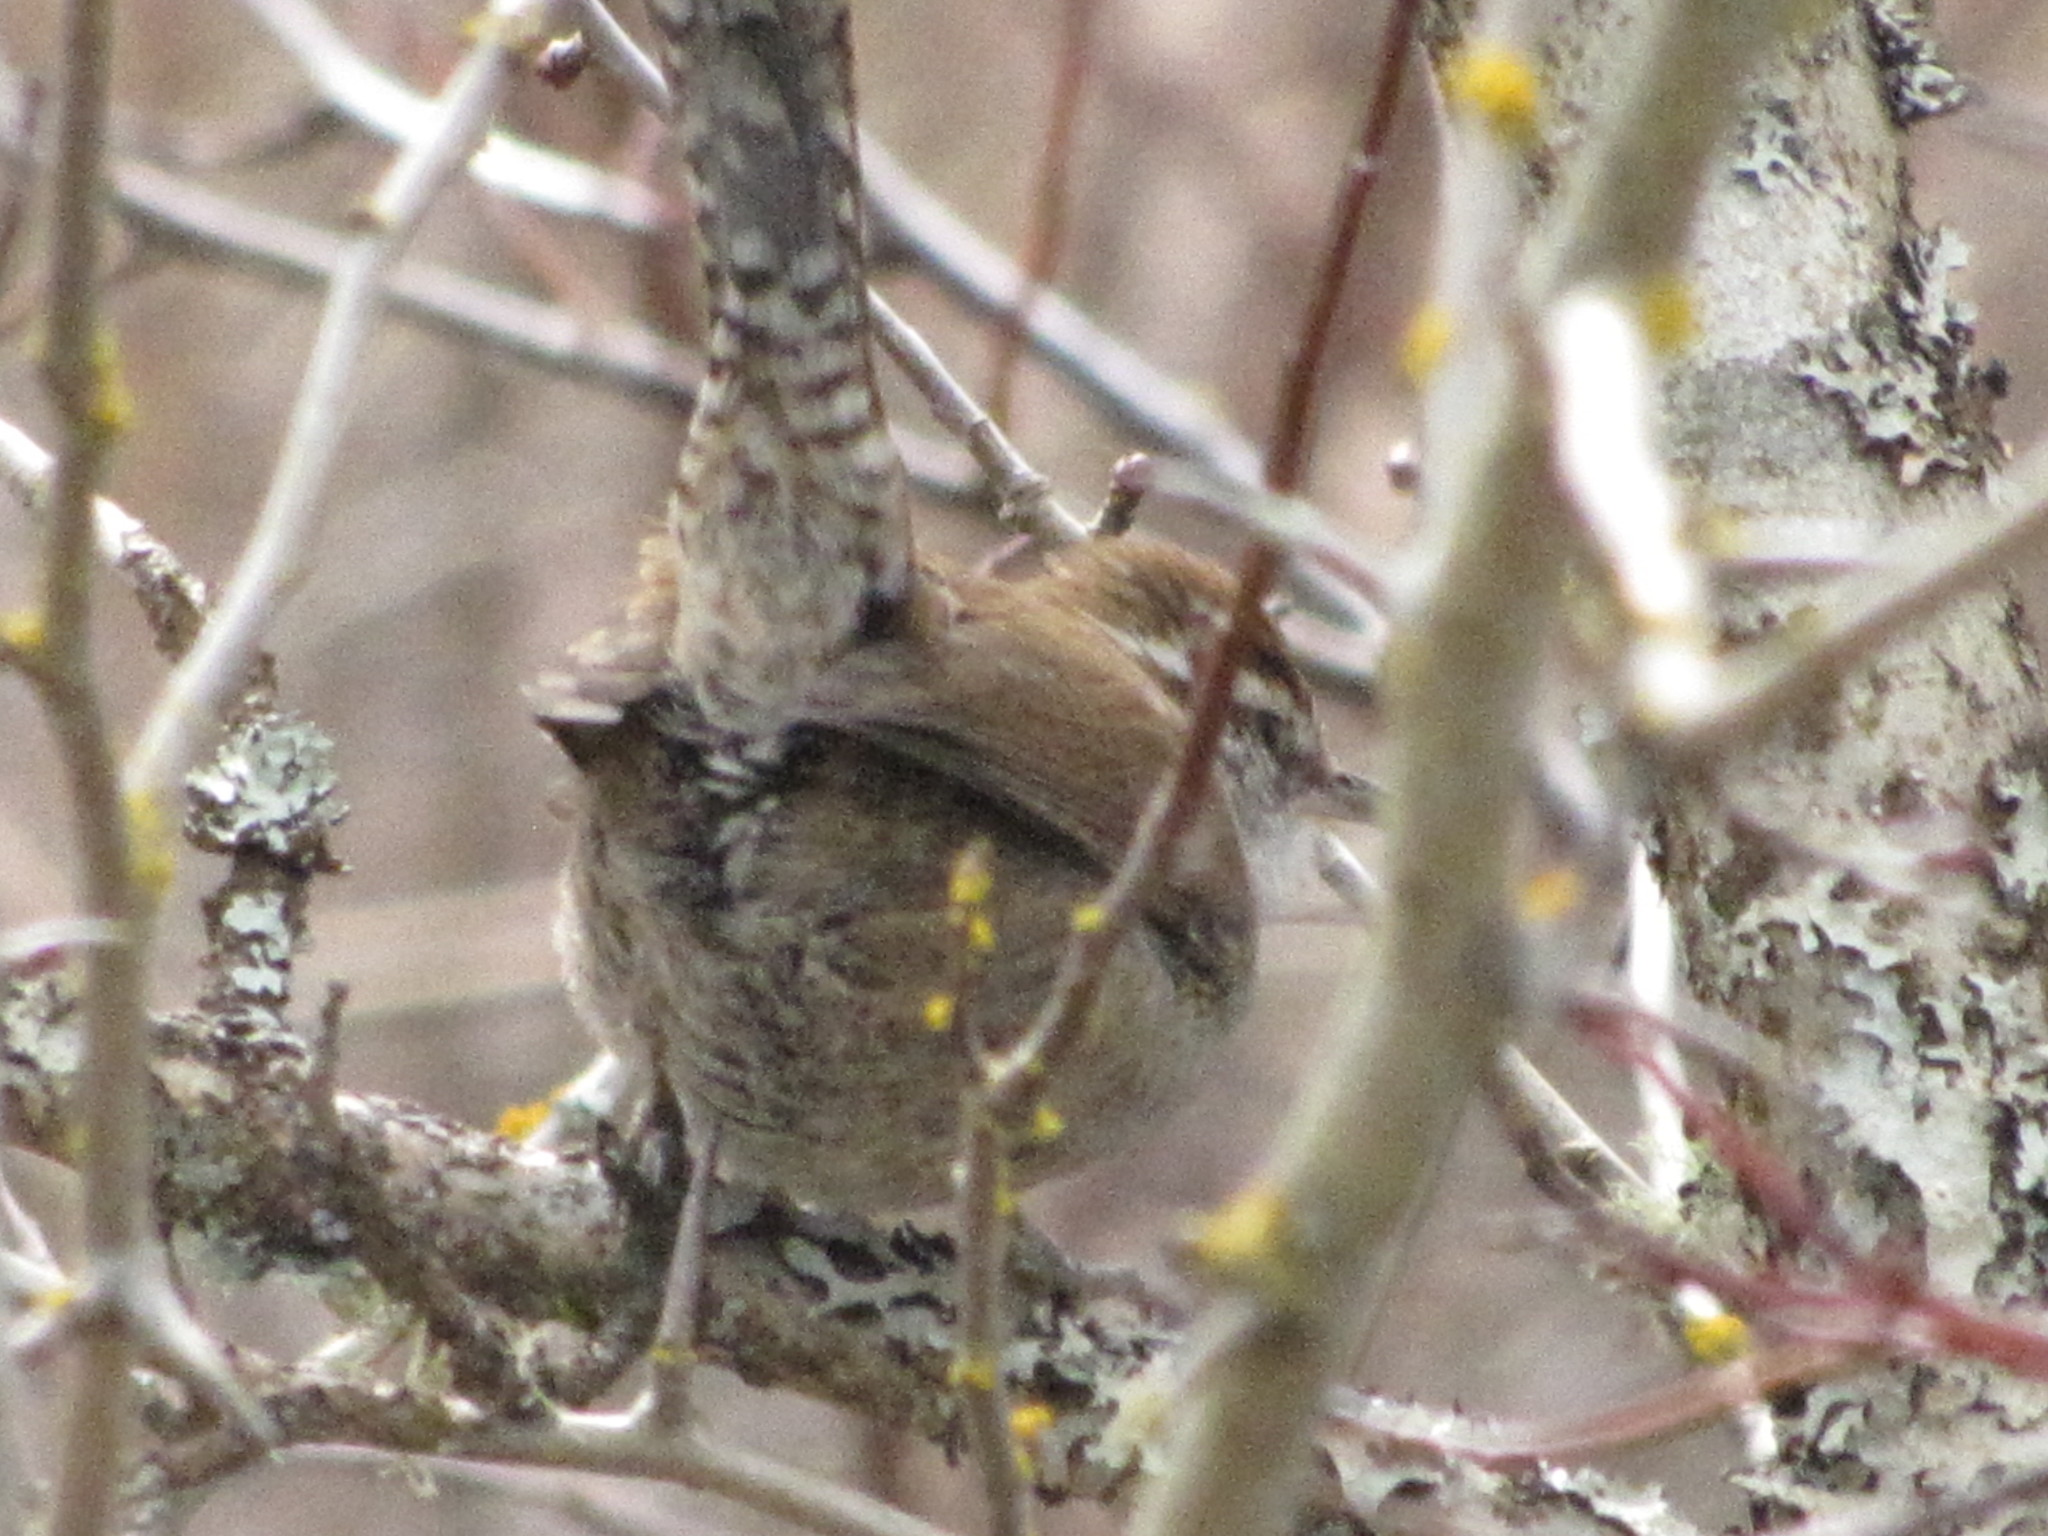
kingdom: Animalia
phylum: Chordata
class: Aves
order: Passeriformes
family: Troglodytidae
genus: Thryomanes
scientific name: Thryomanes bewickii
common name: Bewick's wren
